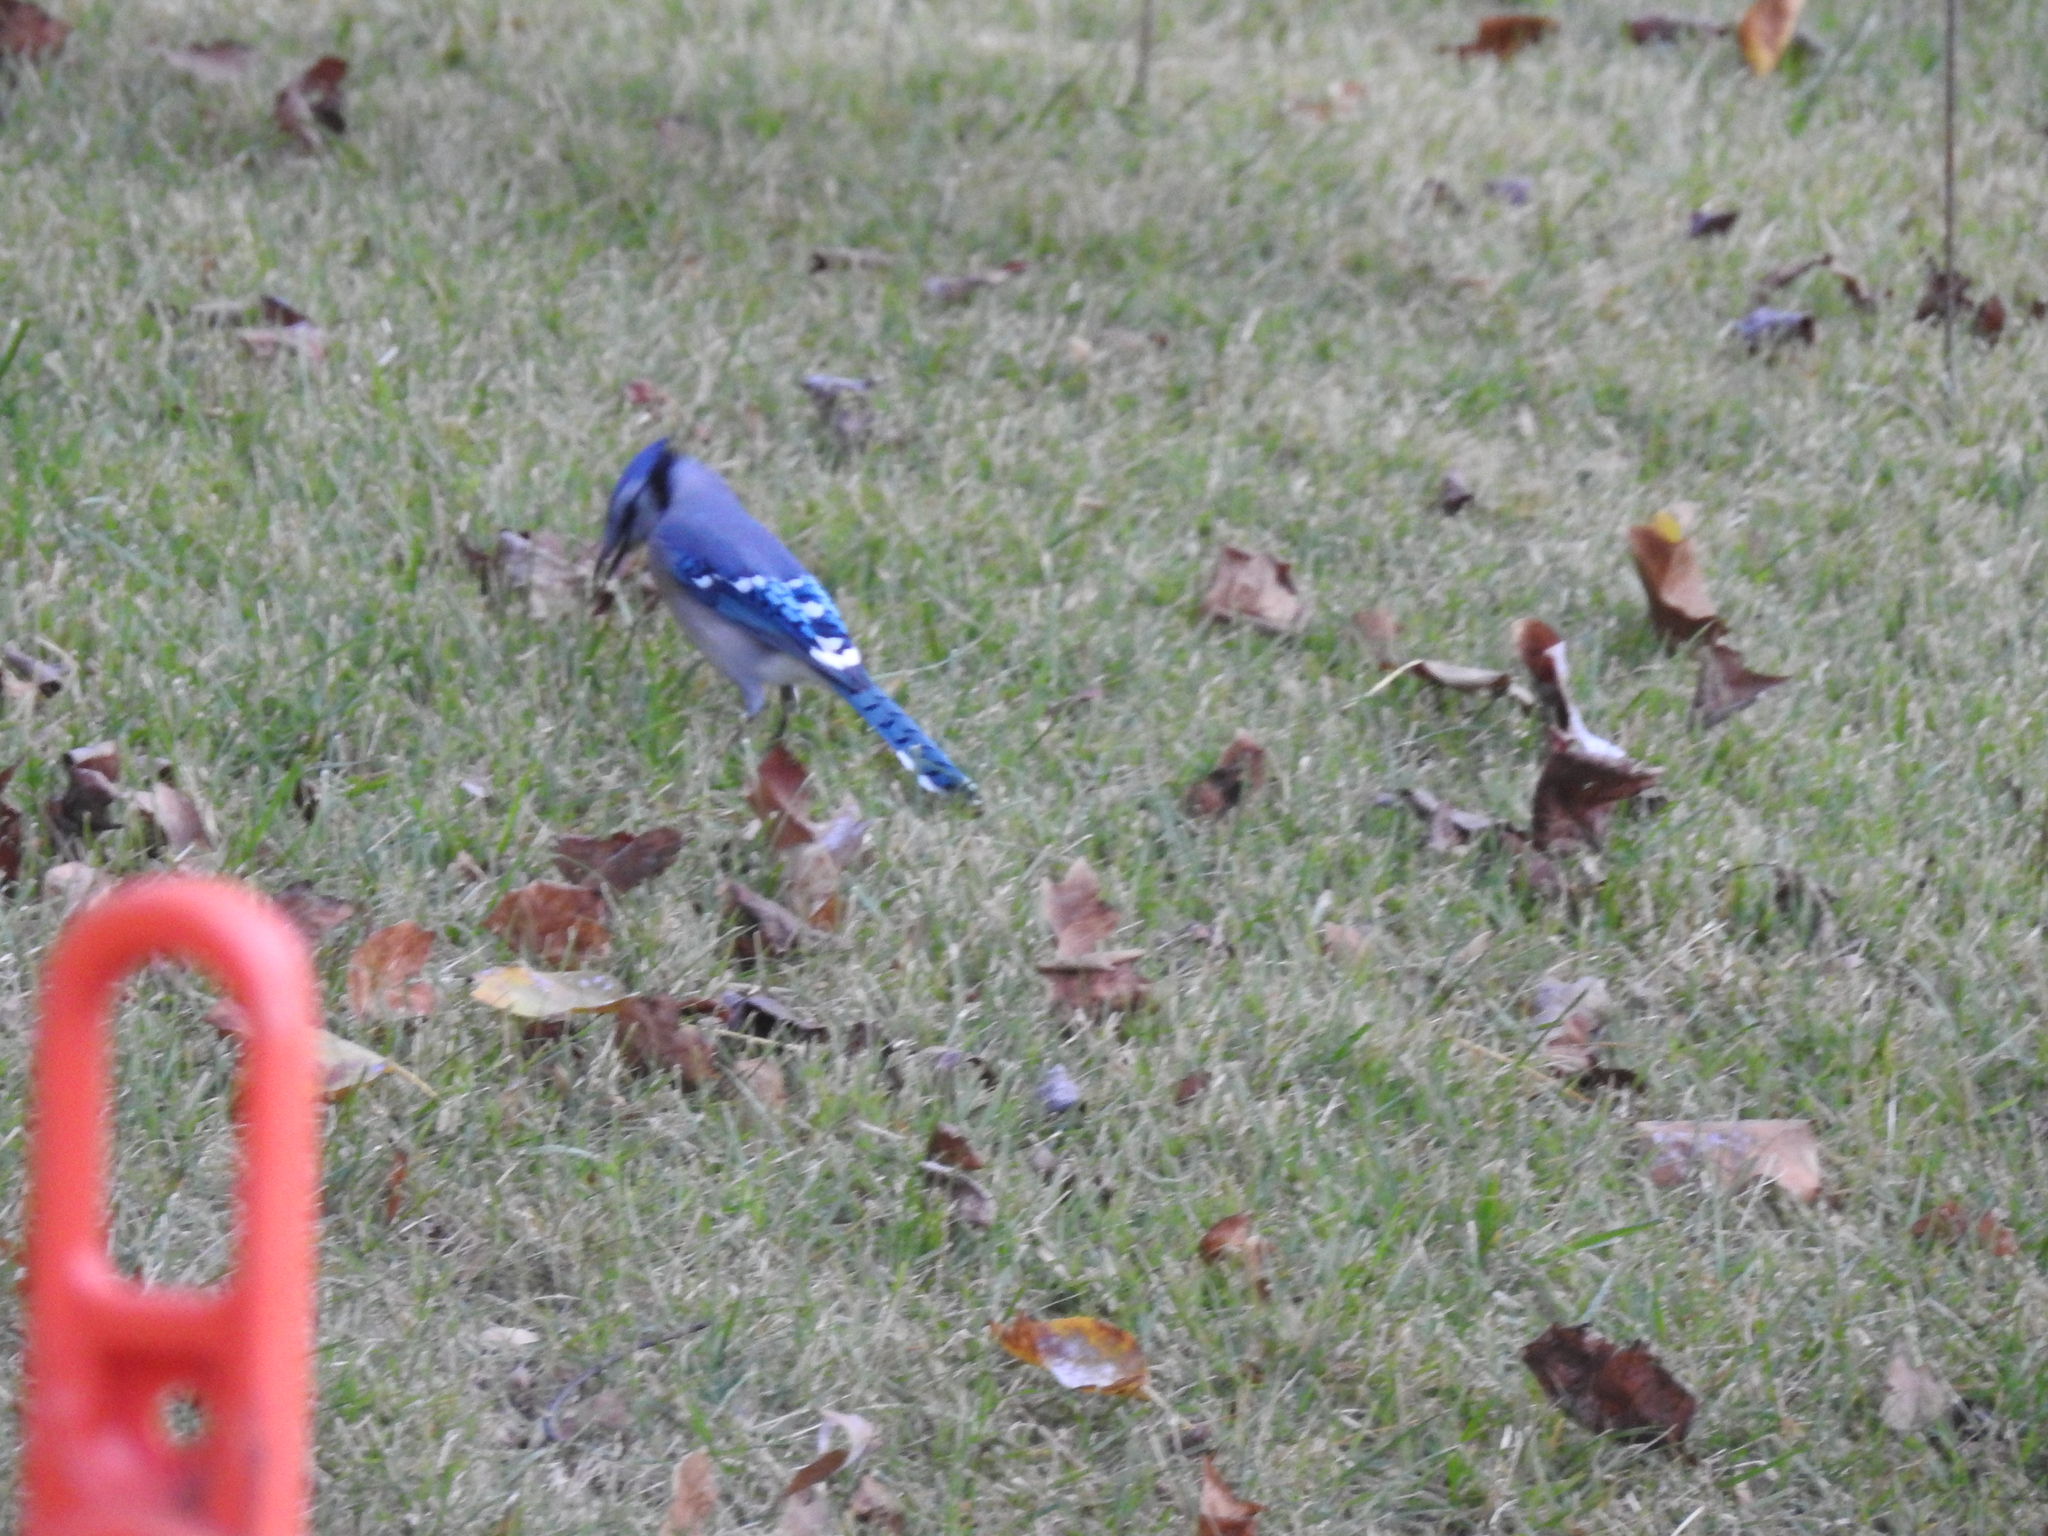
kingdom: Animalia
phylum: Chordata
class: Aves
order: Passeriformes
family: Corvidae
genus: Cyanocitta
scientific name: Cyanocitta cristata
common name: Blue jay
